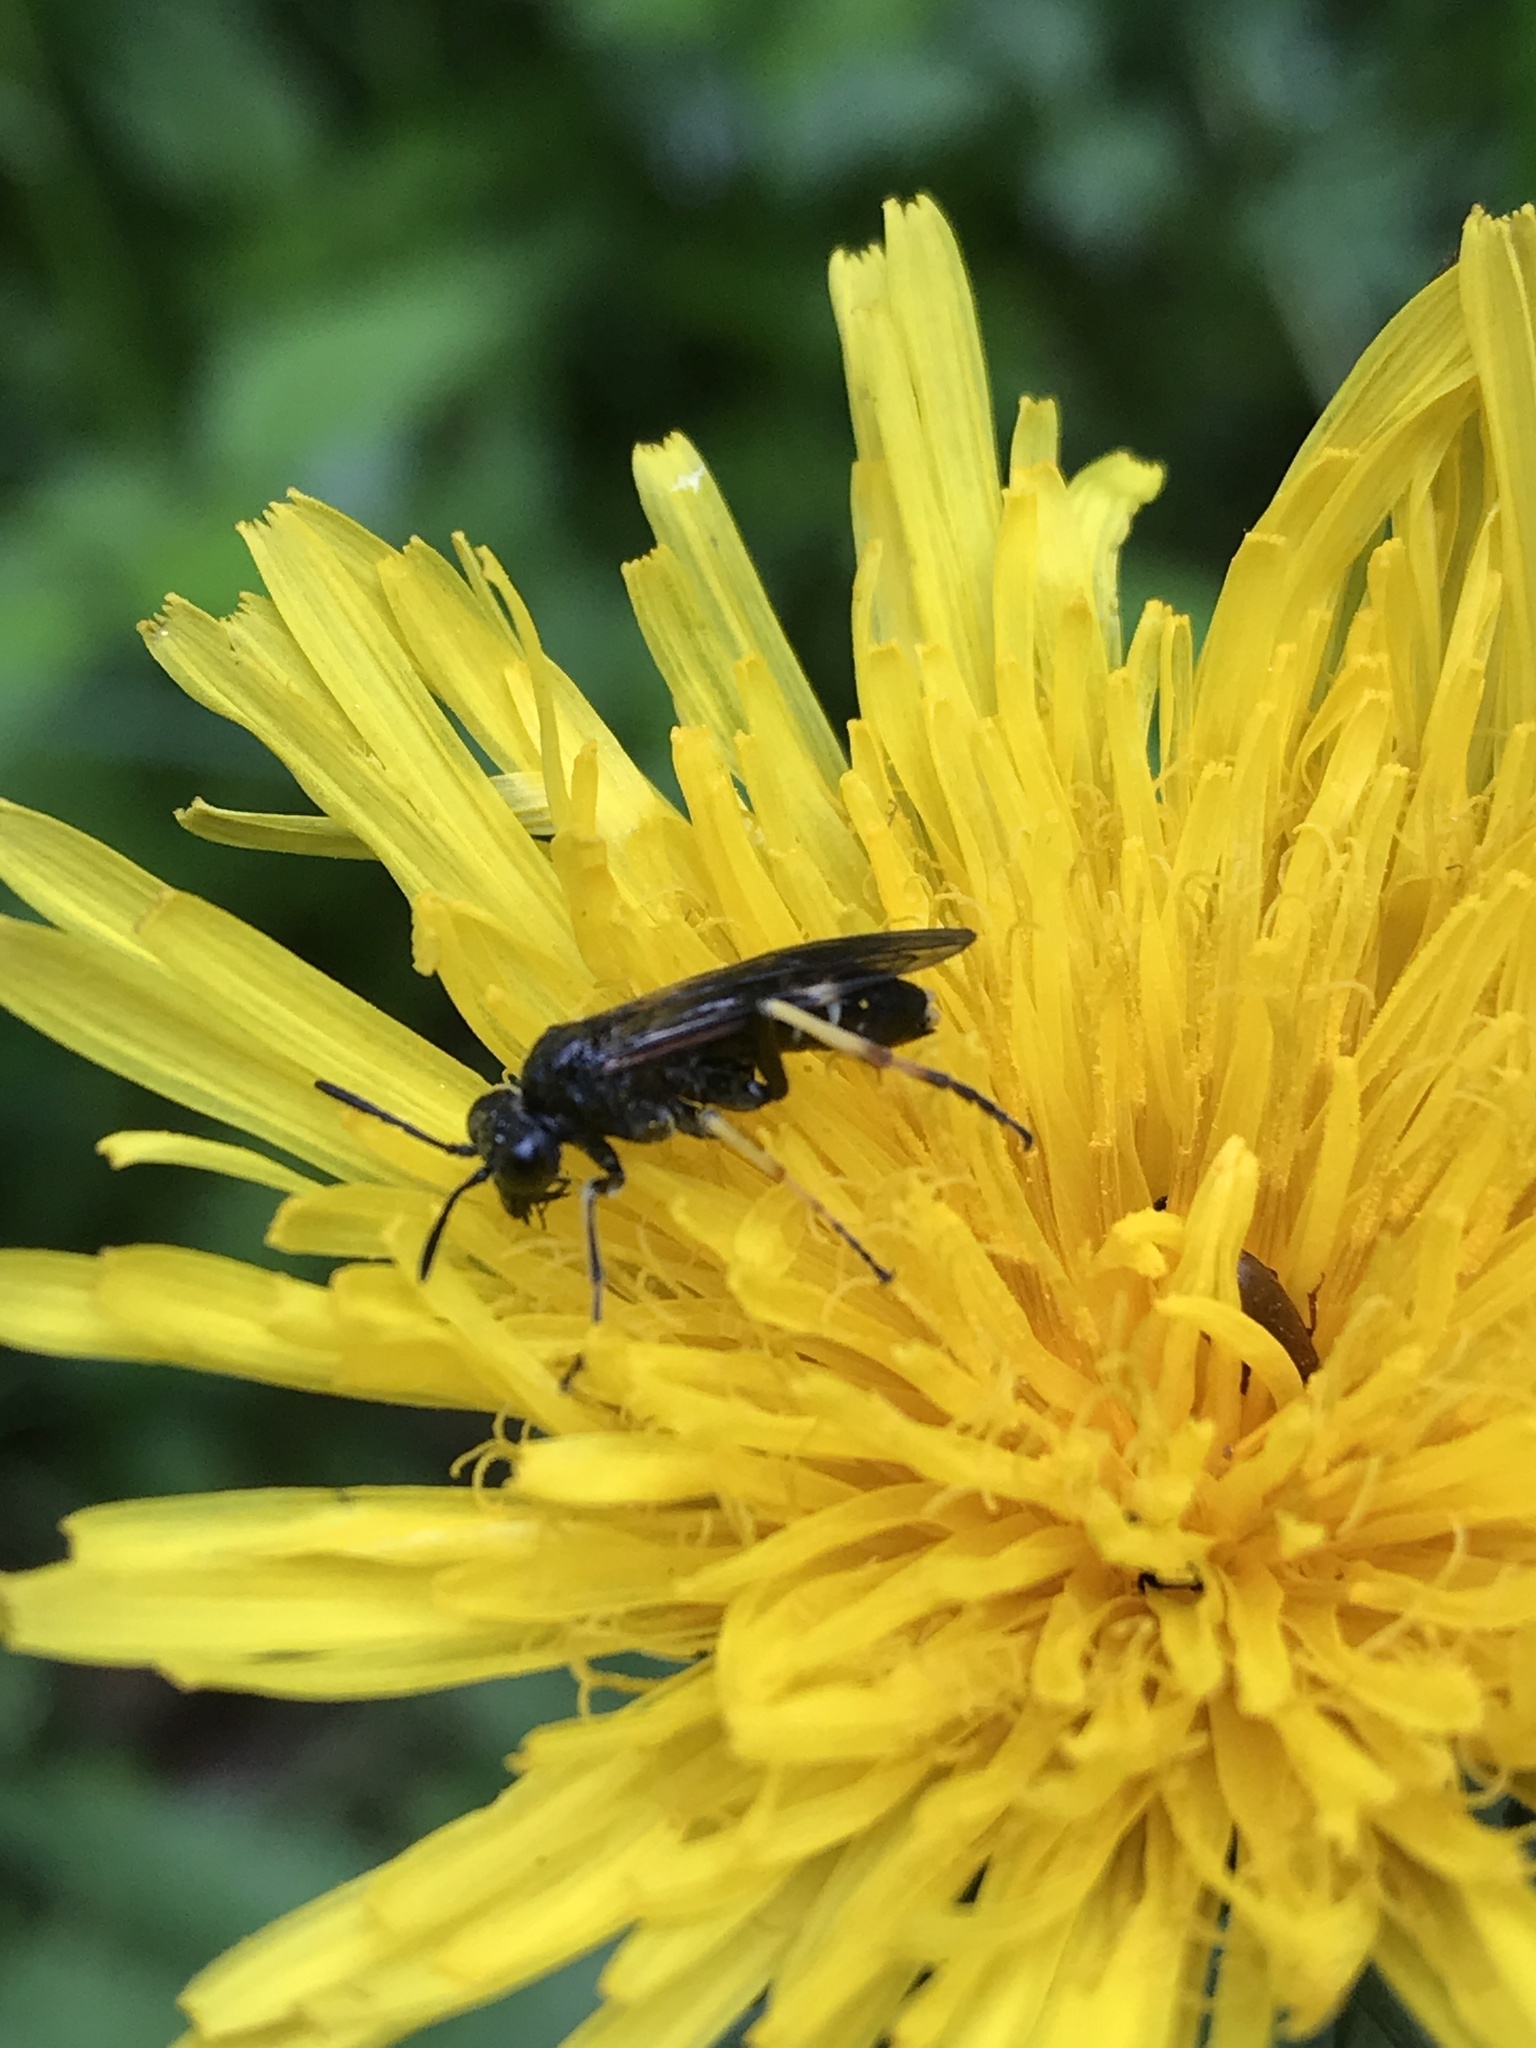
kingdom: Animalia
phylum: Arthropoda
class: Insecta
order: Hymenoptera
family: Tenthredinidae
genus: Tenthredo
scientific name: Tenthredo koehleri
